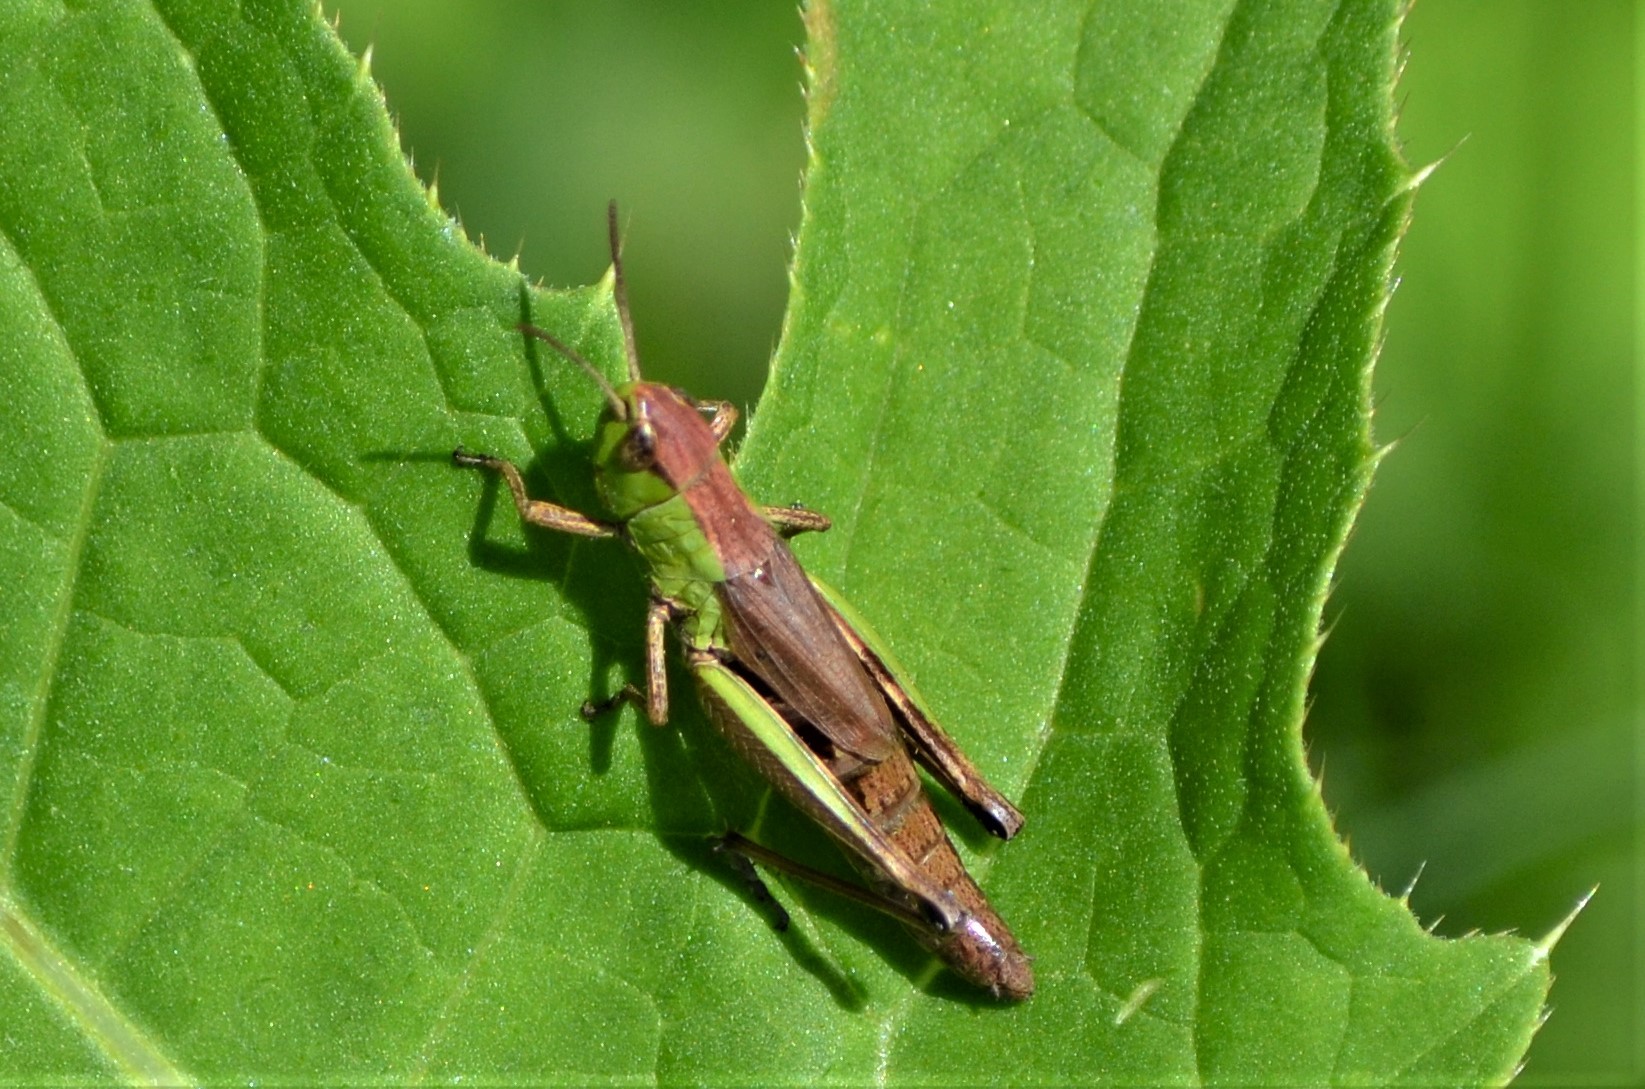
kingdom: Animalia
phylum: Arthropoda
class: Insecta
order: Orthoptera
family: Acrididae
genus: Pseudochorthippus
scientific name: Pseudochorthippus parallelus
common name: Meadow grasshopper
